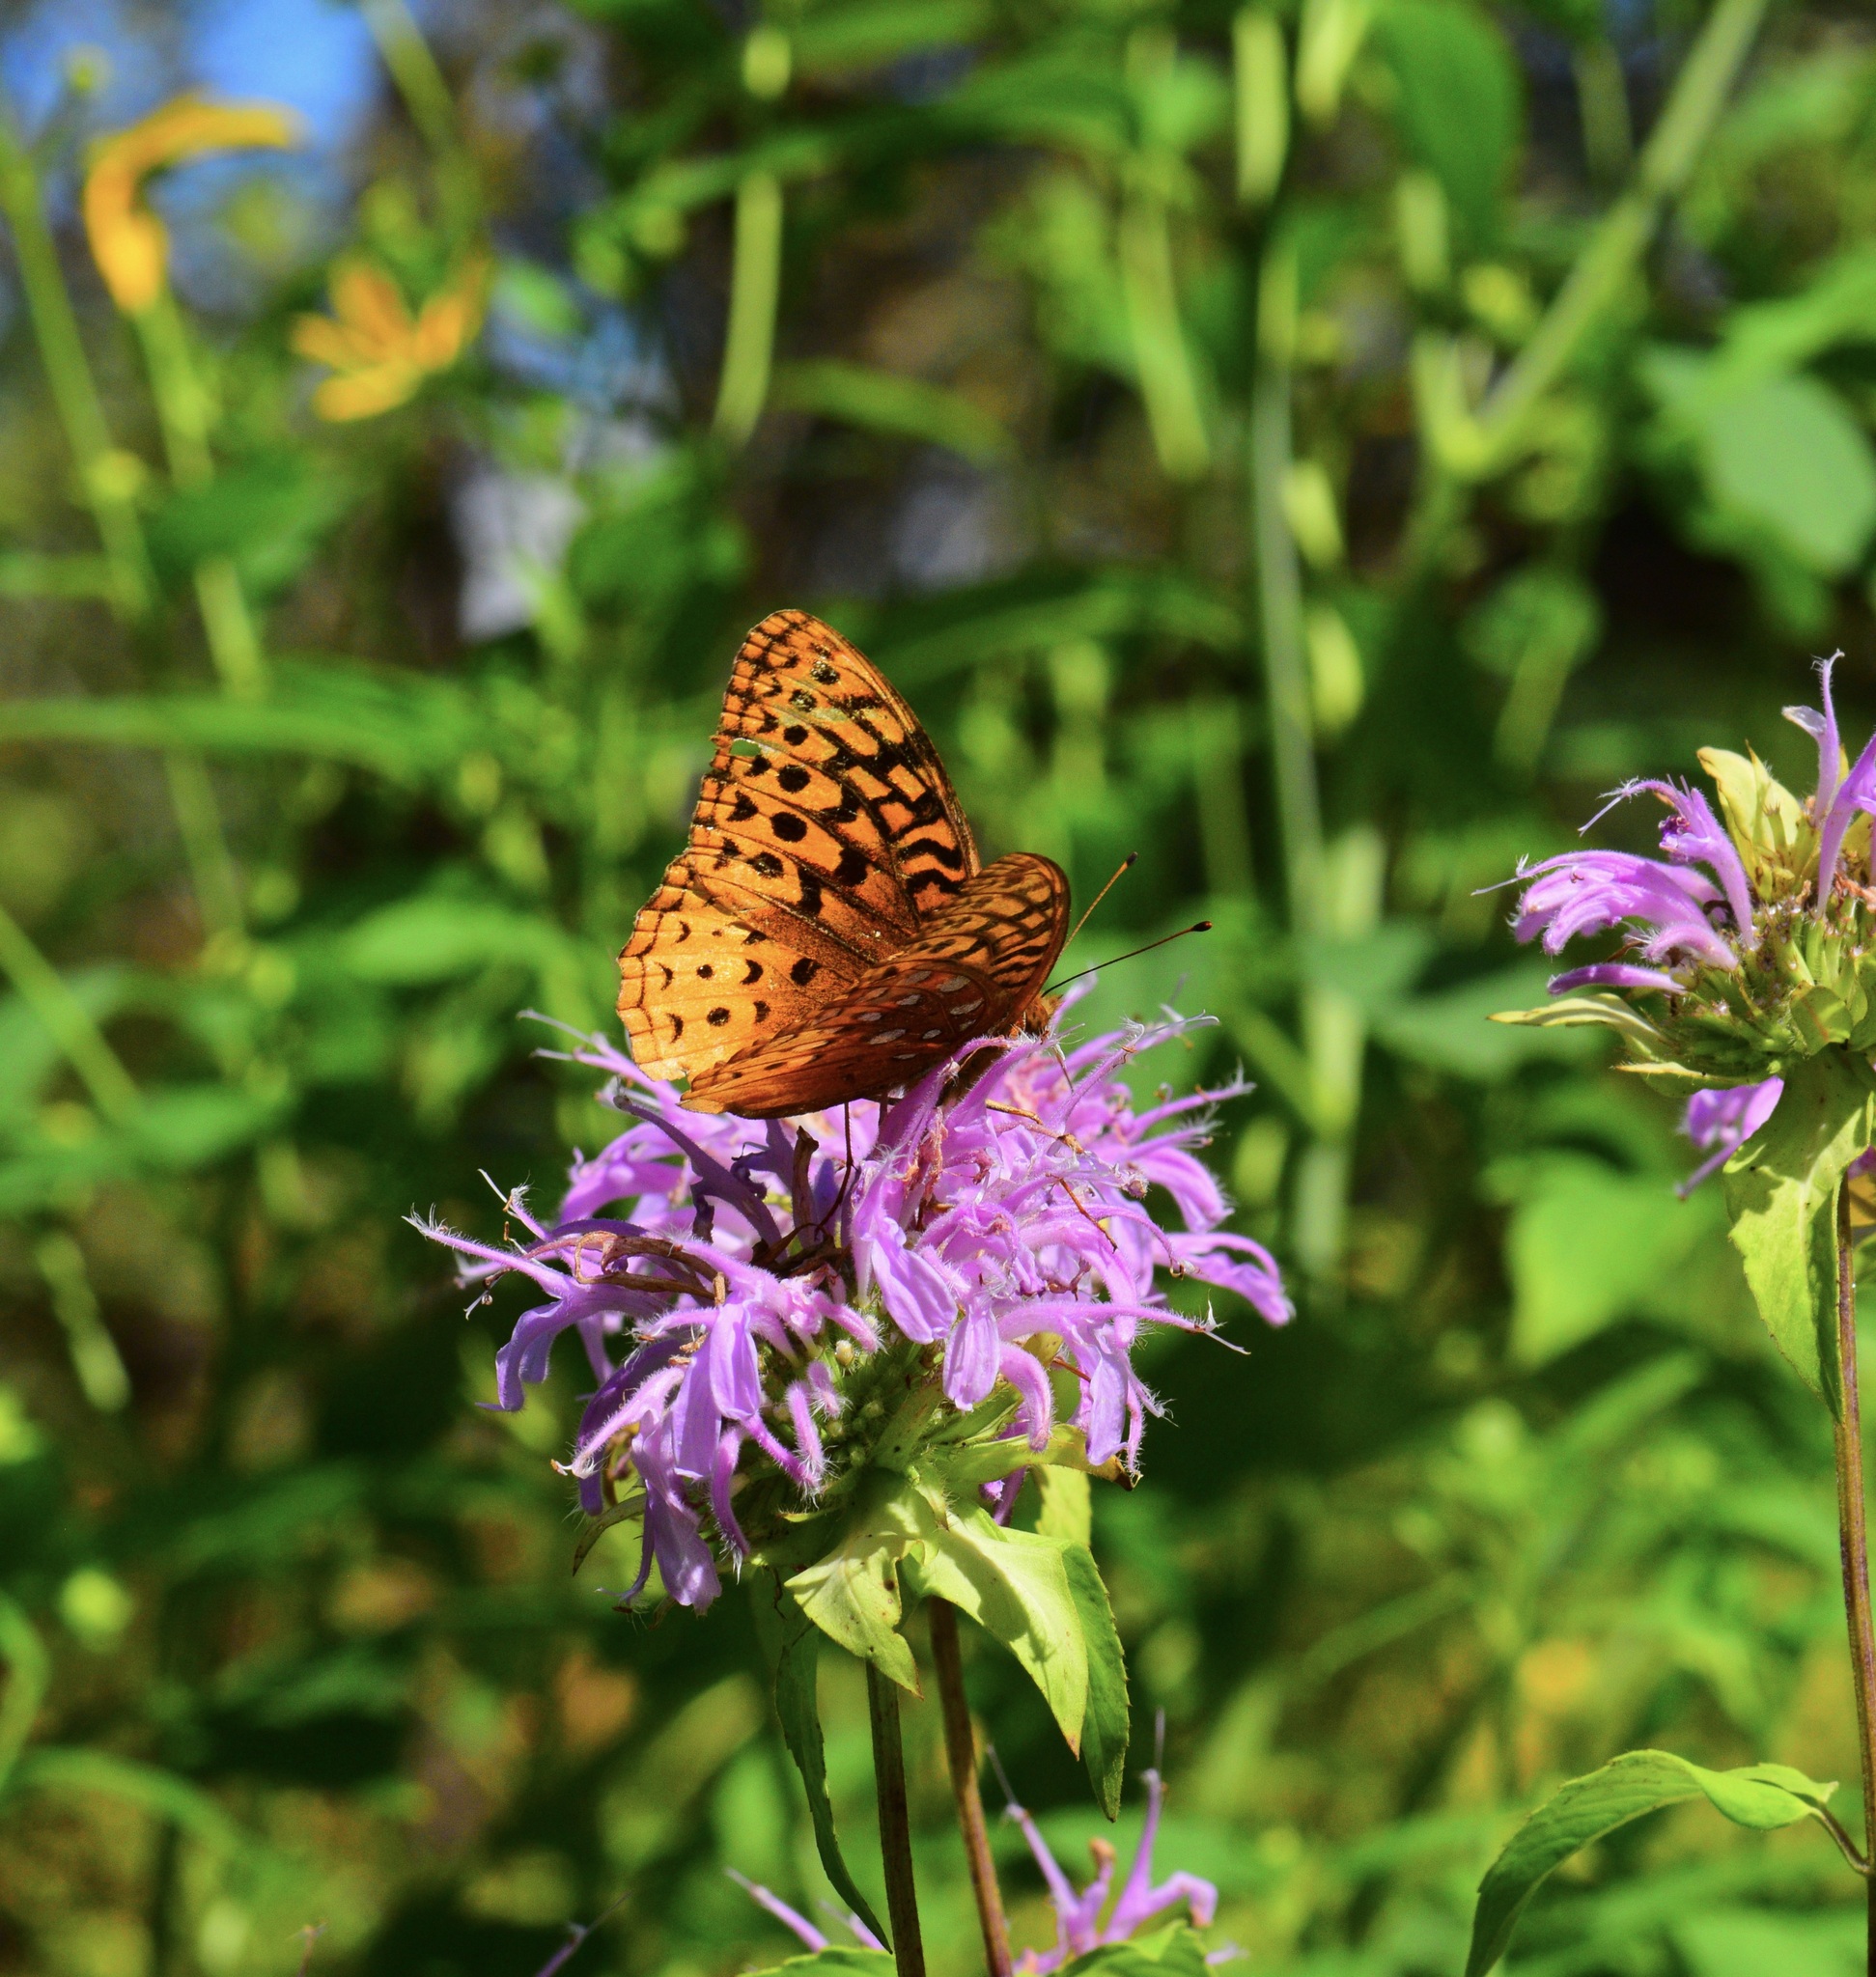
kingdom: Animalia
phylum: Arthropoda
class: Insecta
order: Lepidoptera
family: Nymphalidae
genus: Speyeria
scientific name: Speyeria cybele
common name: Great spangled fritillary
